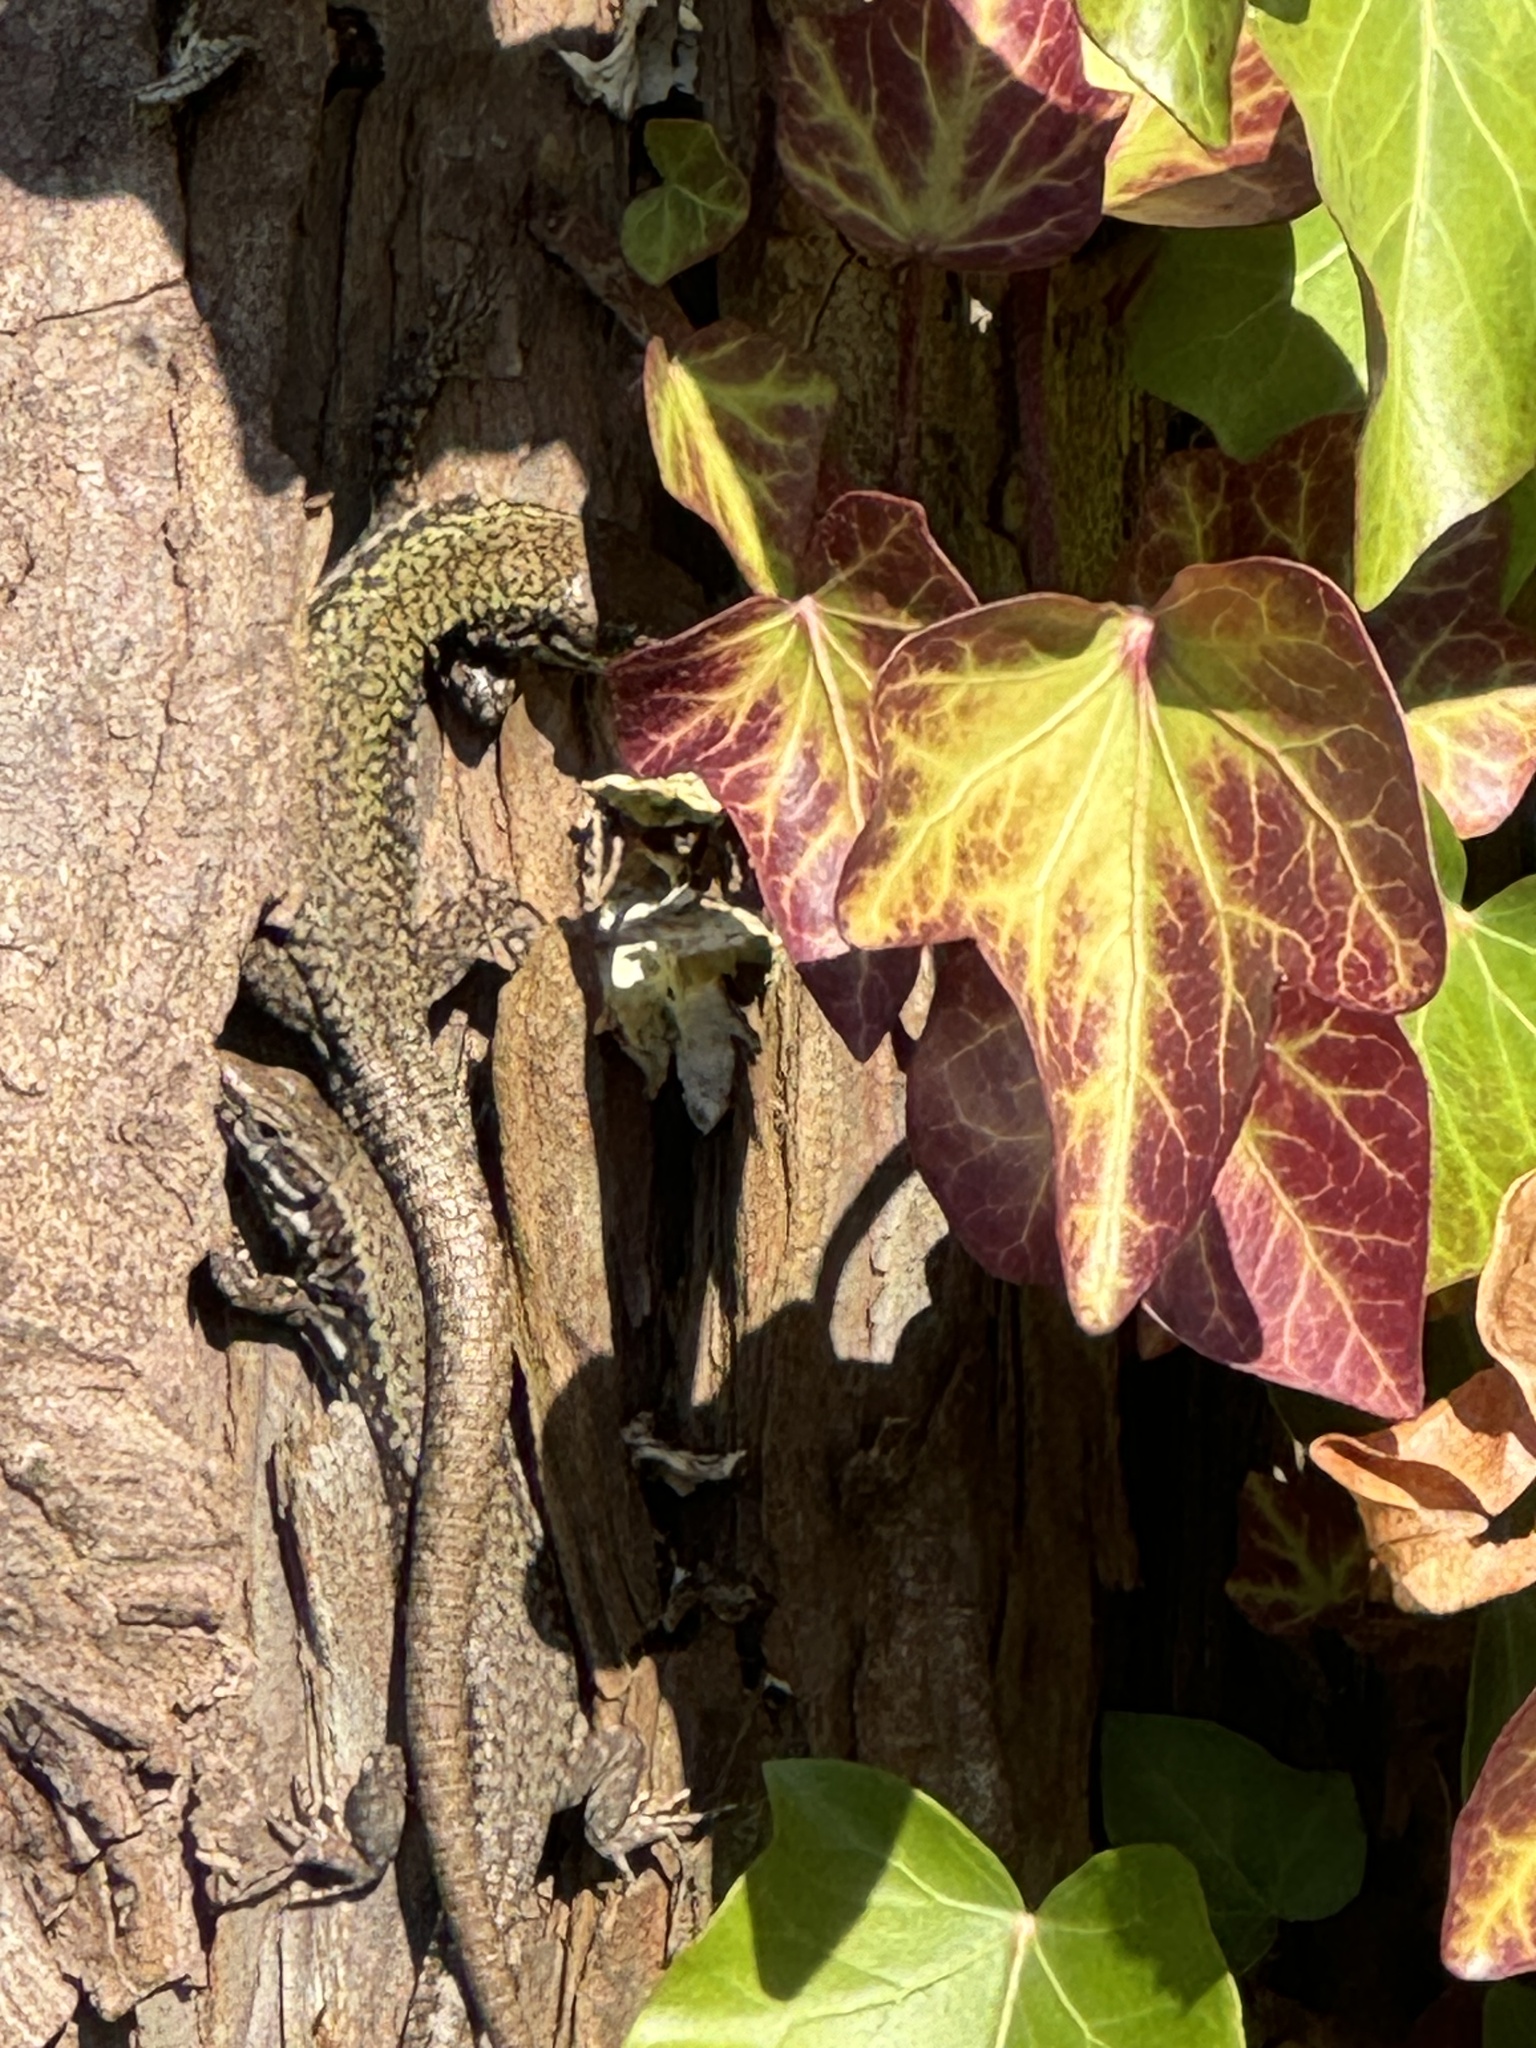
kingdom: Animalia
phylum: Chordata
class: Squamata
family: Lacertidae
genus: Podarcis
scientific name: Podarcis muralis
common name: Common wall lizard
